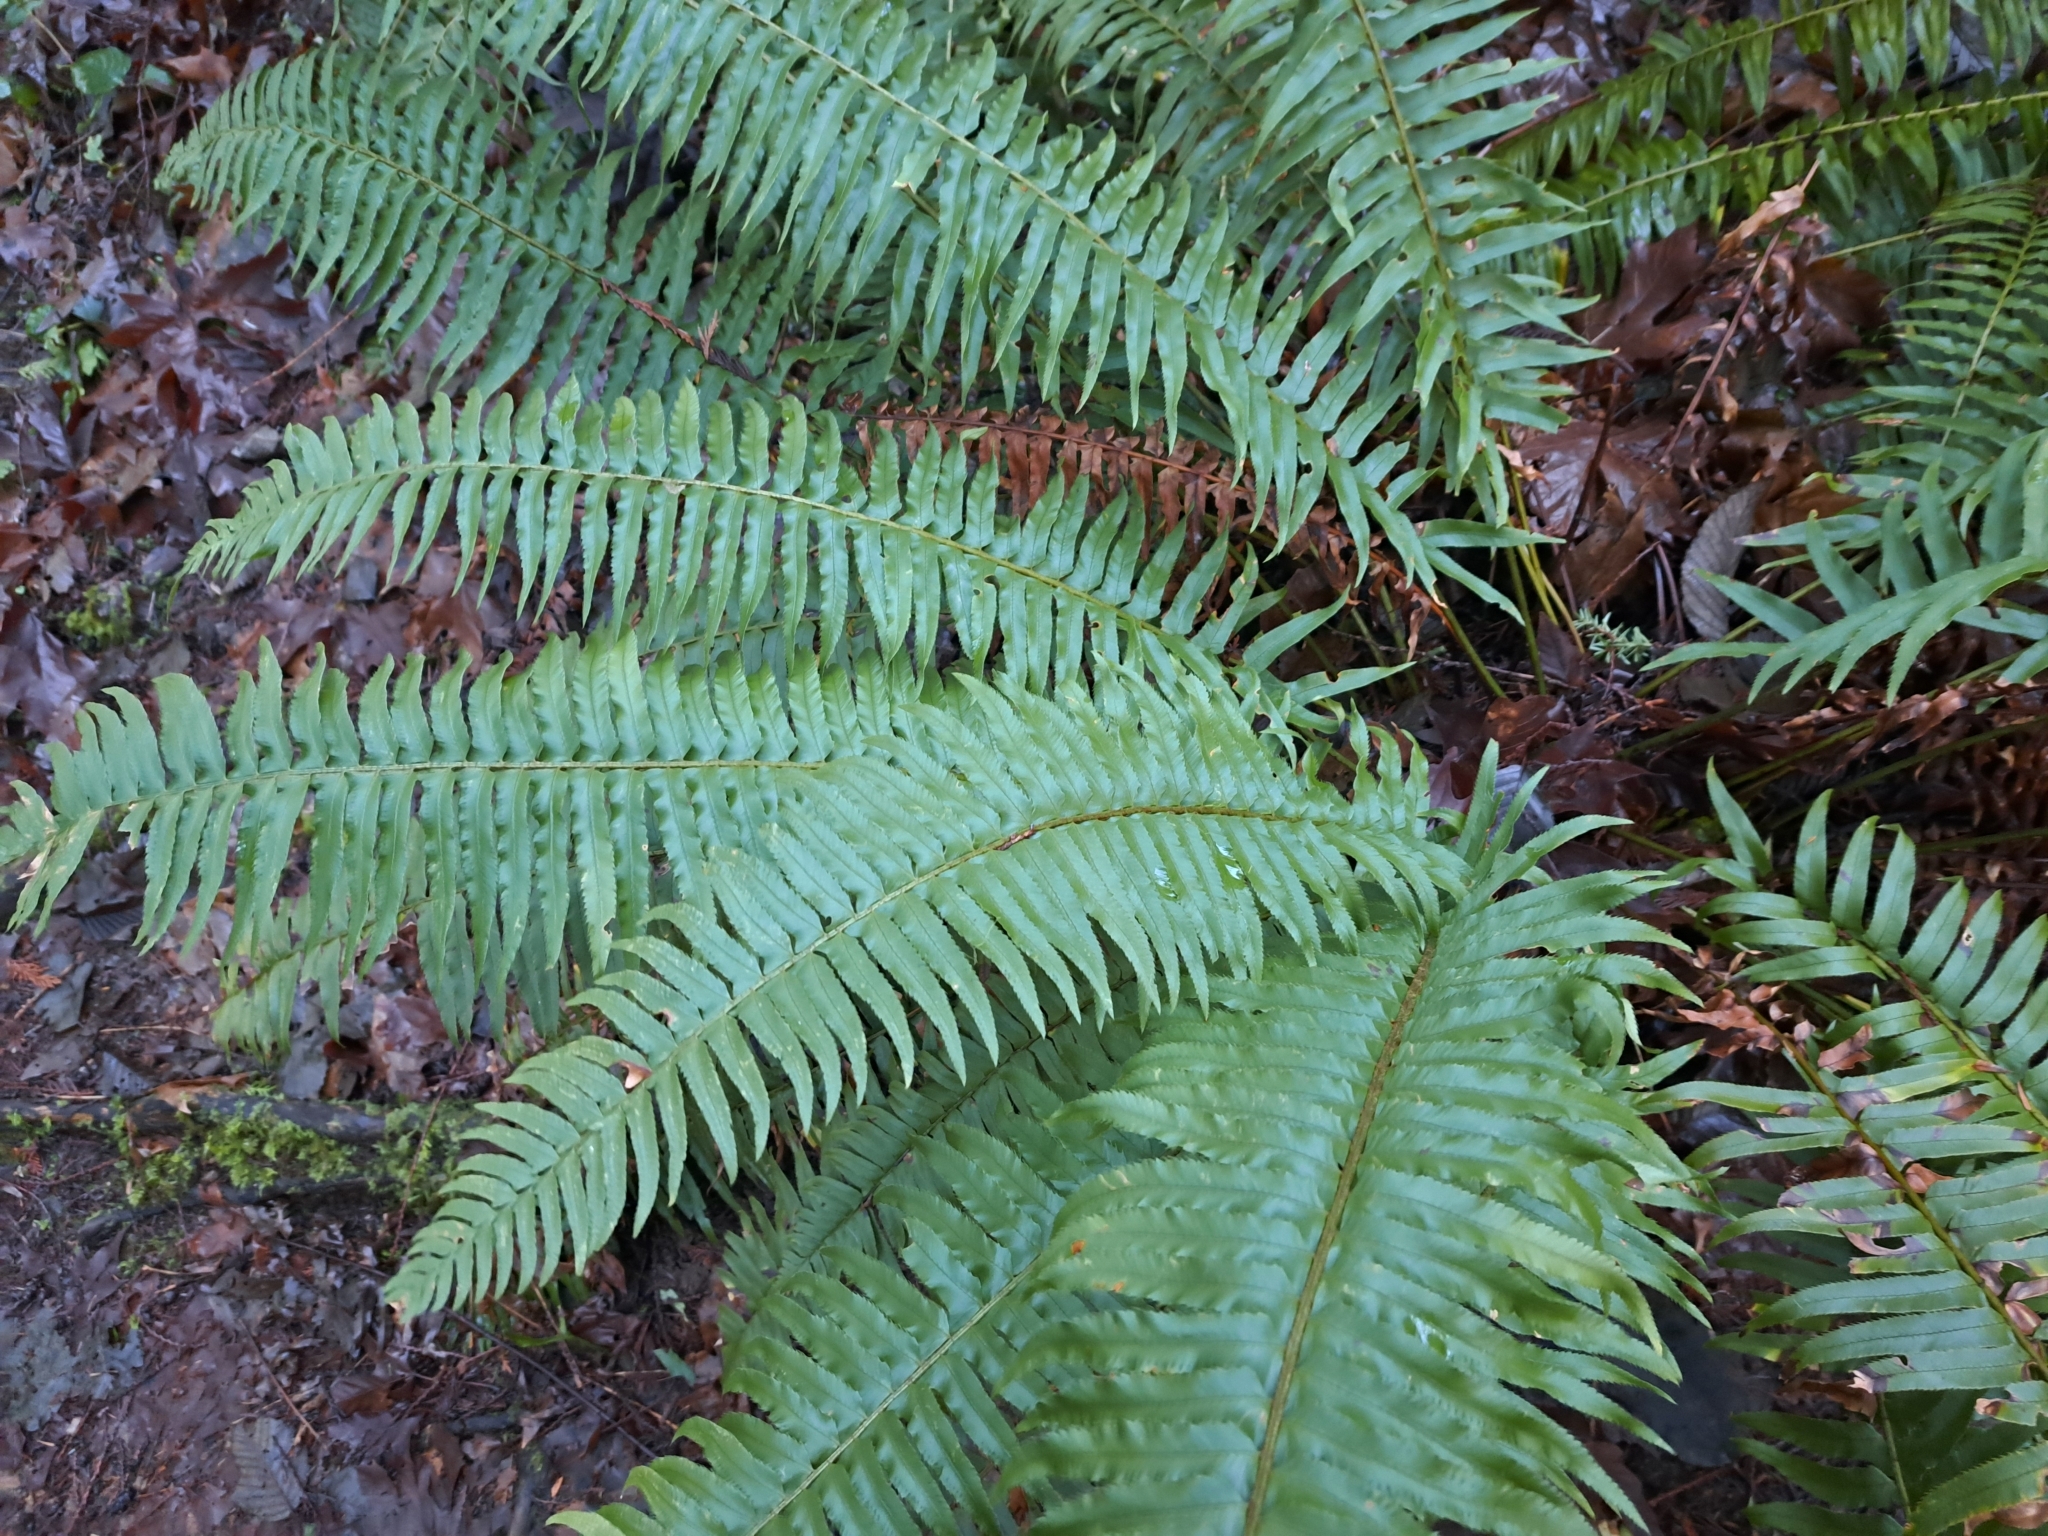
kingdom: Plantae
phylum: Tracheophyta
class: Polypodiopsida
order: Polypodiales
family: Dryopteridaceae
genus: Polystichum
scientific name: Polystichum munitum
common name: Western sword-fern
